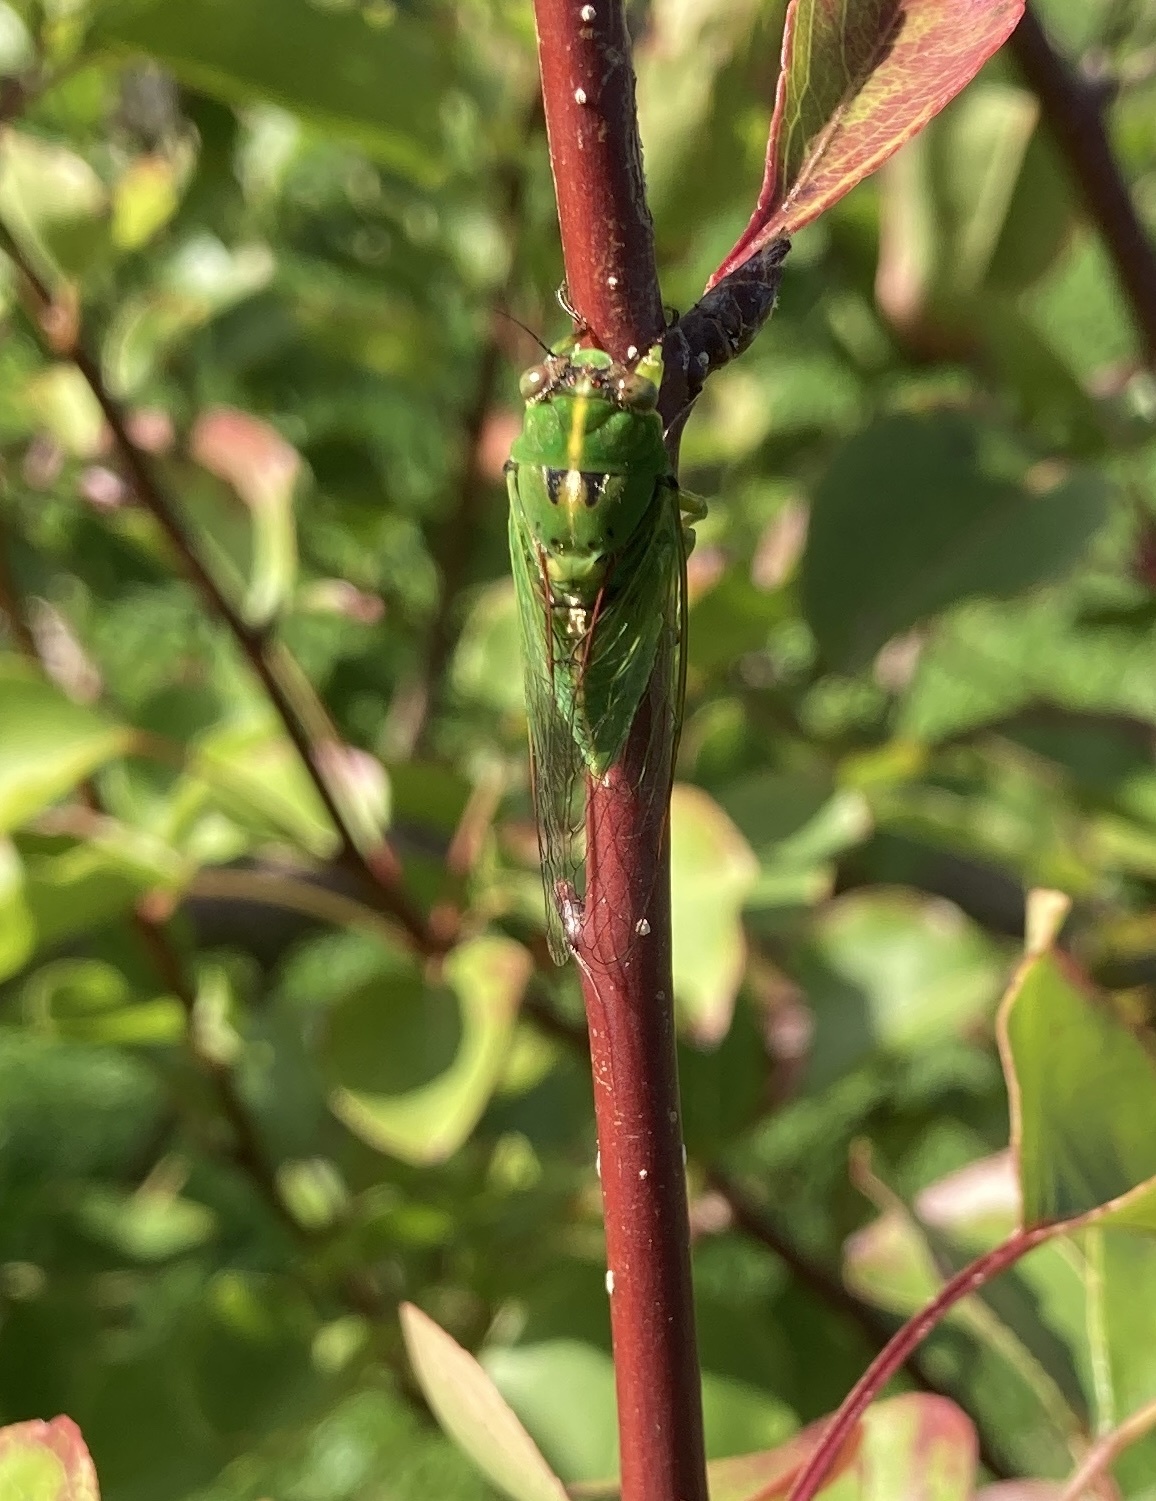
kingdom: Animalia
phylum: Arthropoda
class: Insecta
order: Hemiptera
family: Cicadidae
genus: Kikihia
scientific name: Kikihia cutora
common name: Northern snoring cicada
